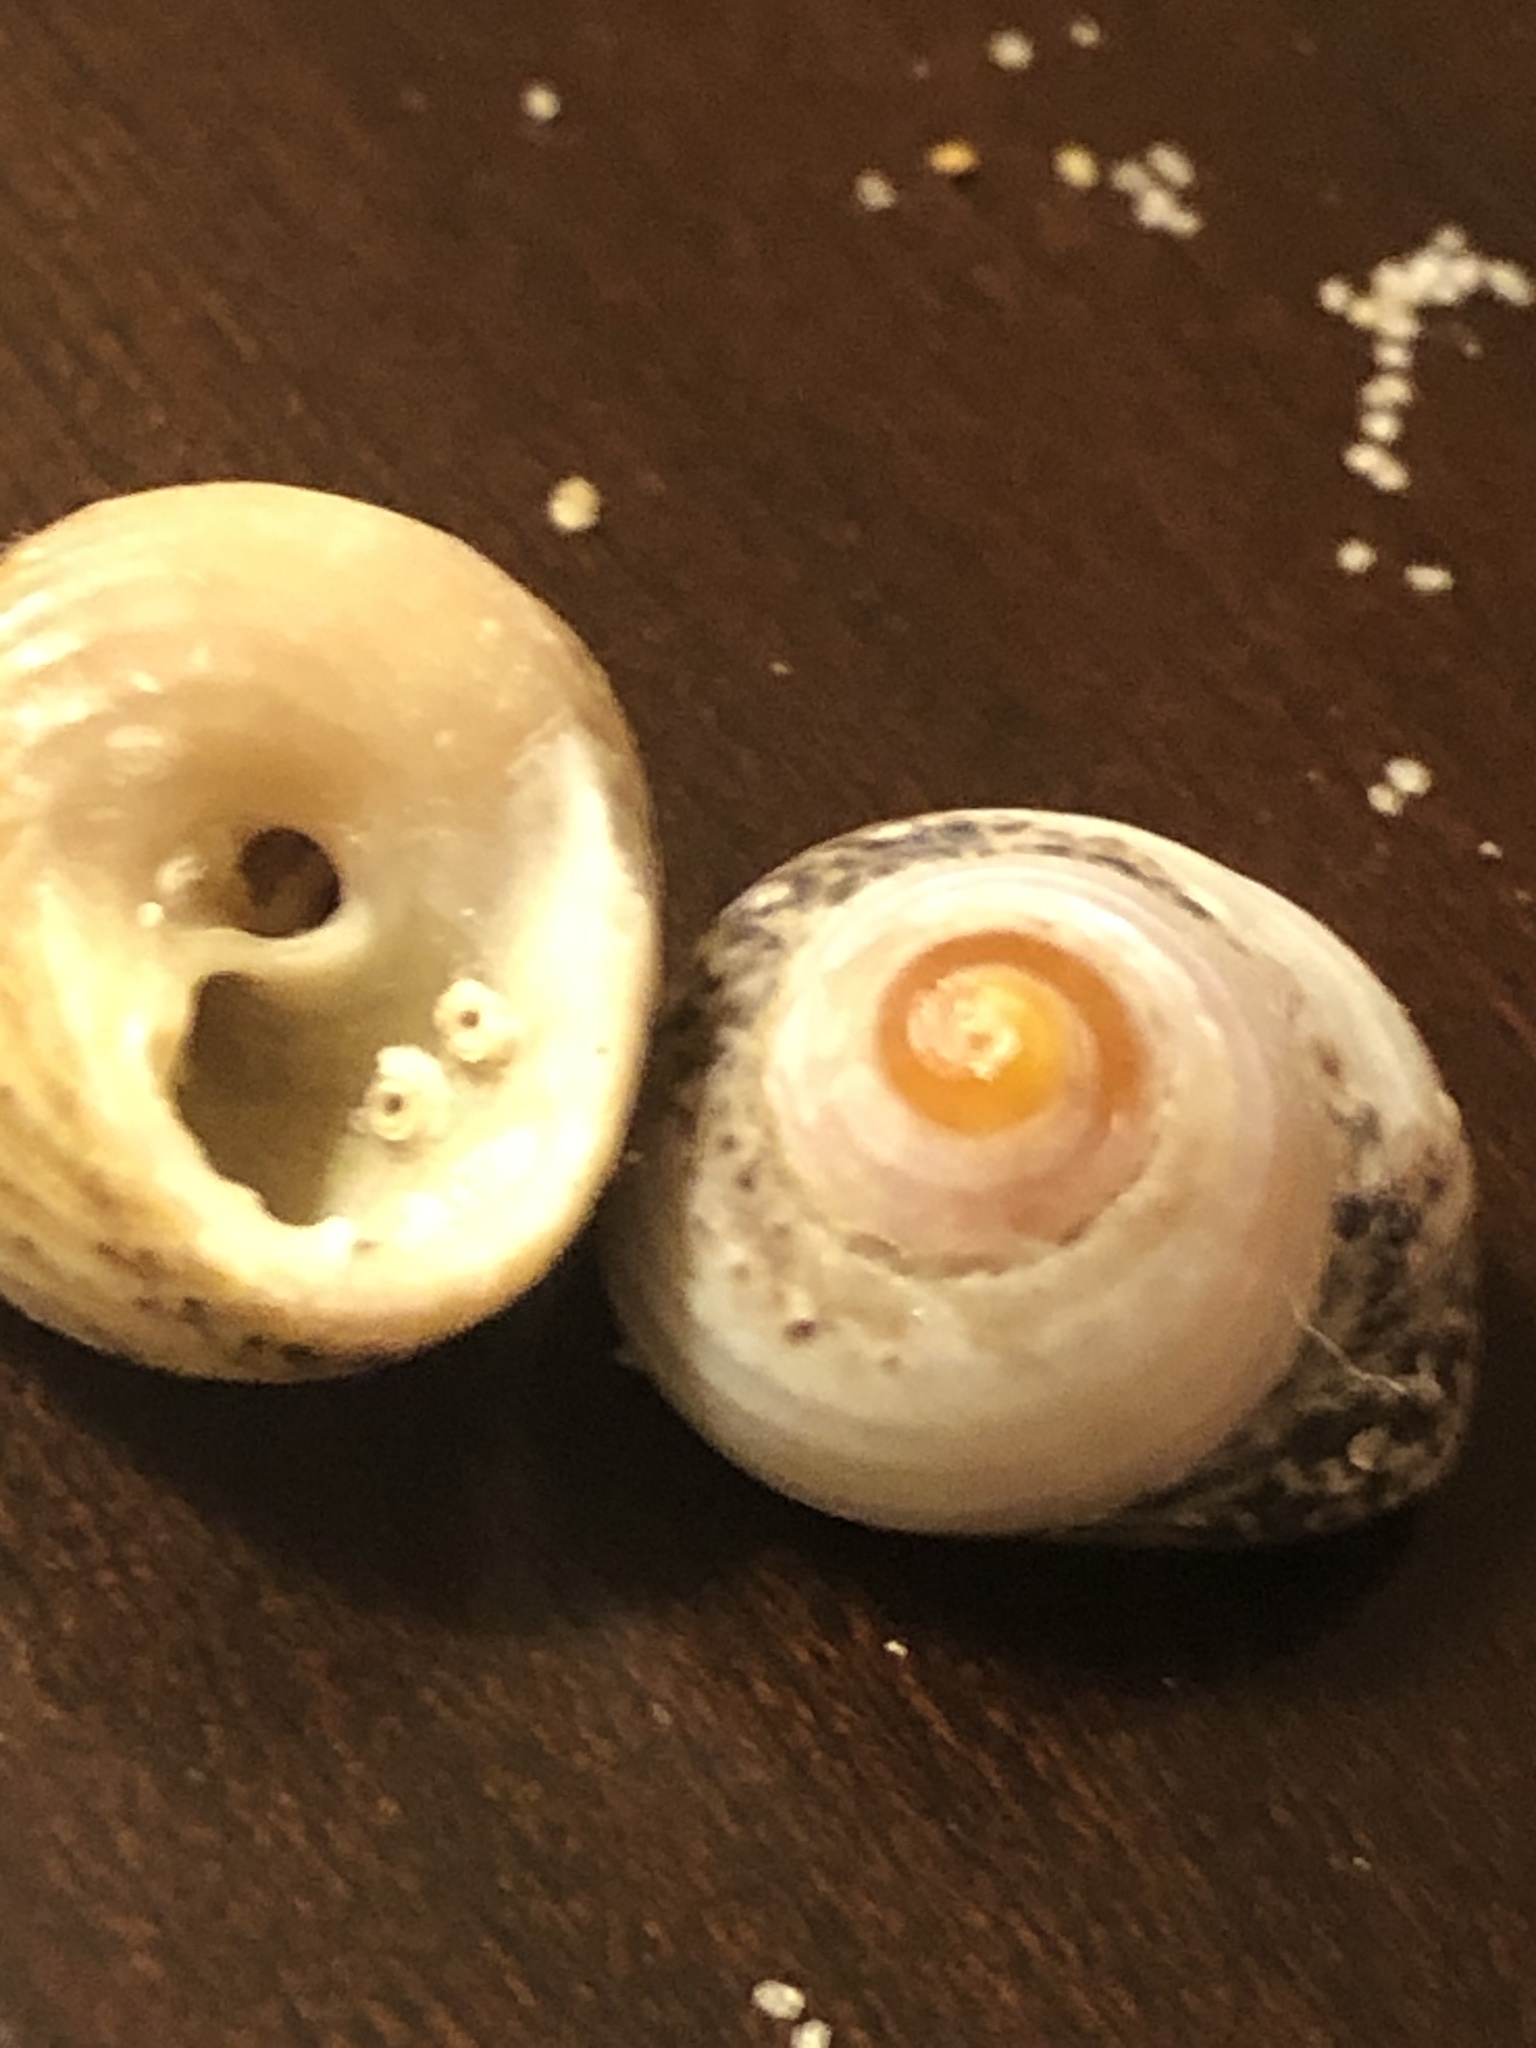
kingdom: Animalia
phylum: Mollusca
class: Gastropoda
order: Trochida
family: Tegulidae
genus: Tegula
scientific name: Tegula eiseni
